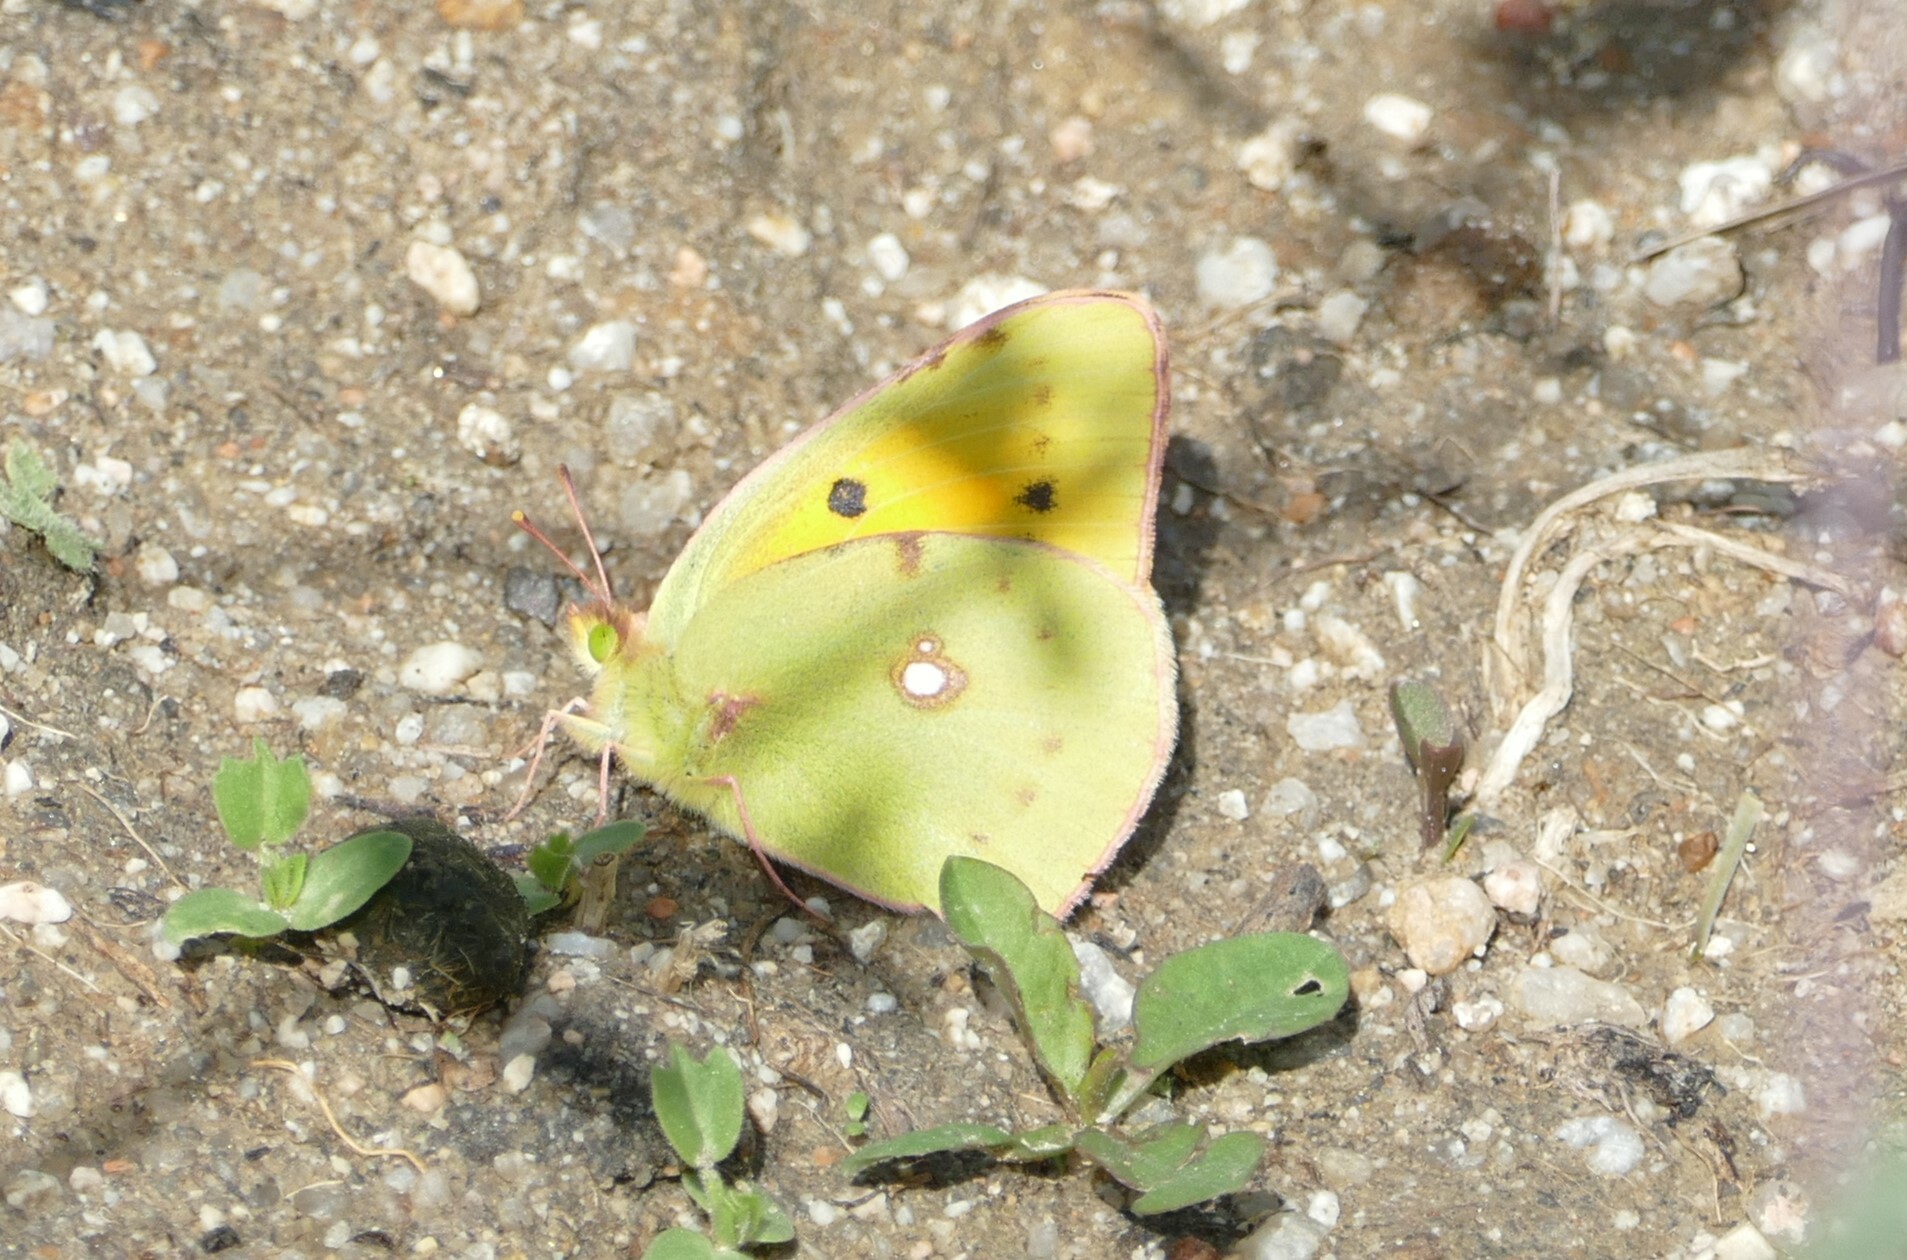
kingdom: Animalia
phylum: Arthropoda
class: Insecta
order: Lepidoptera
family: Pieridae
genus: Colias
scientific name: Colias croceus
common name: Clouded yellow
